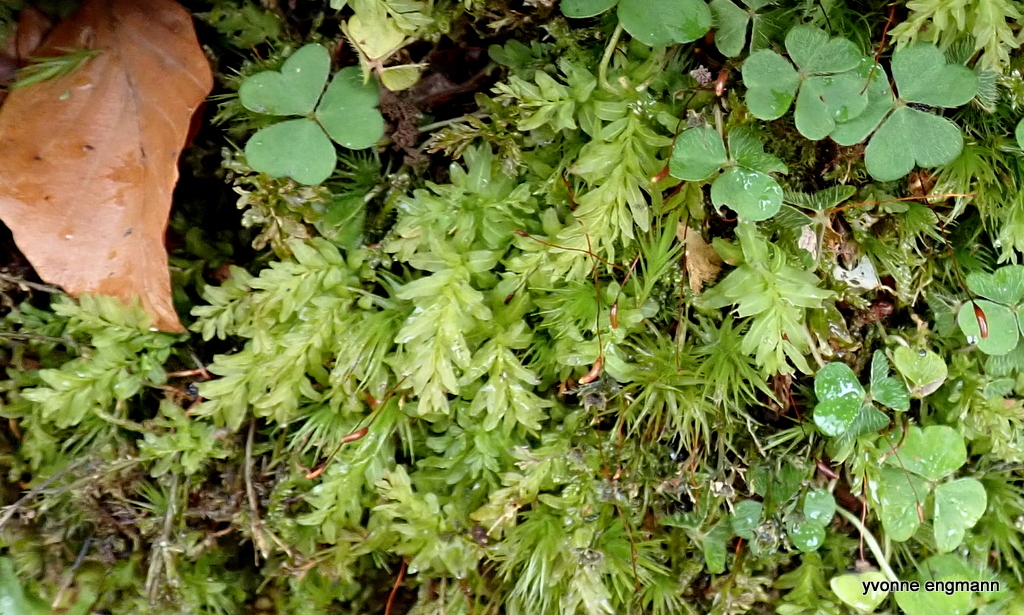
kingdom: Plantae
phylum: Bryophyta
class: Bryopsida
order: Bryales
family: Mniaceae
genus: Plagiomnium
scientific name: Plagiomnium undulatum
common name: Hart's-tongue thyme-moss
